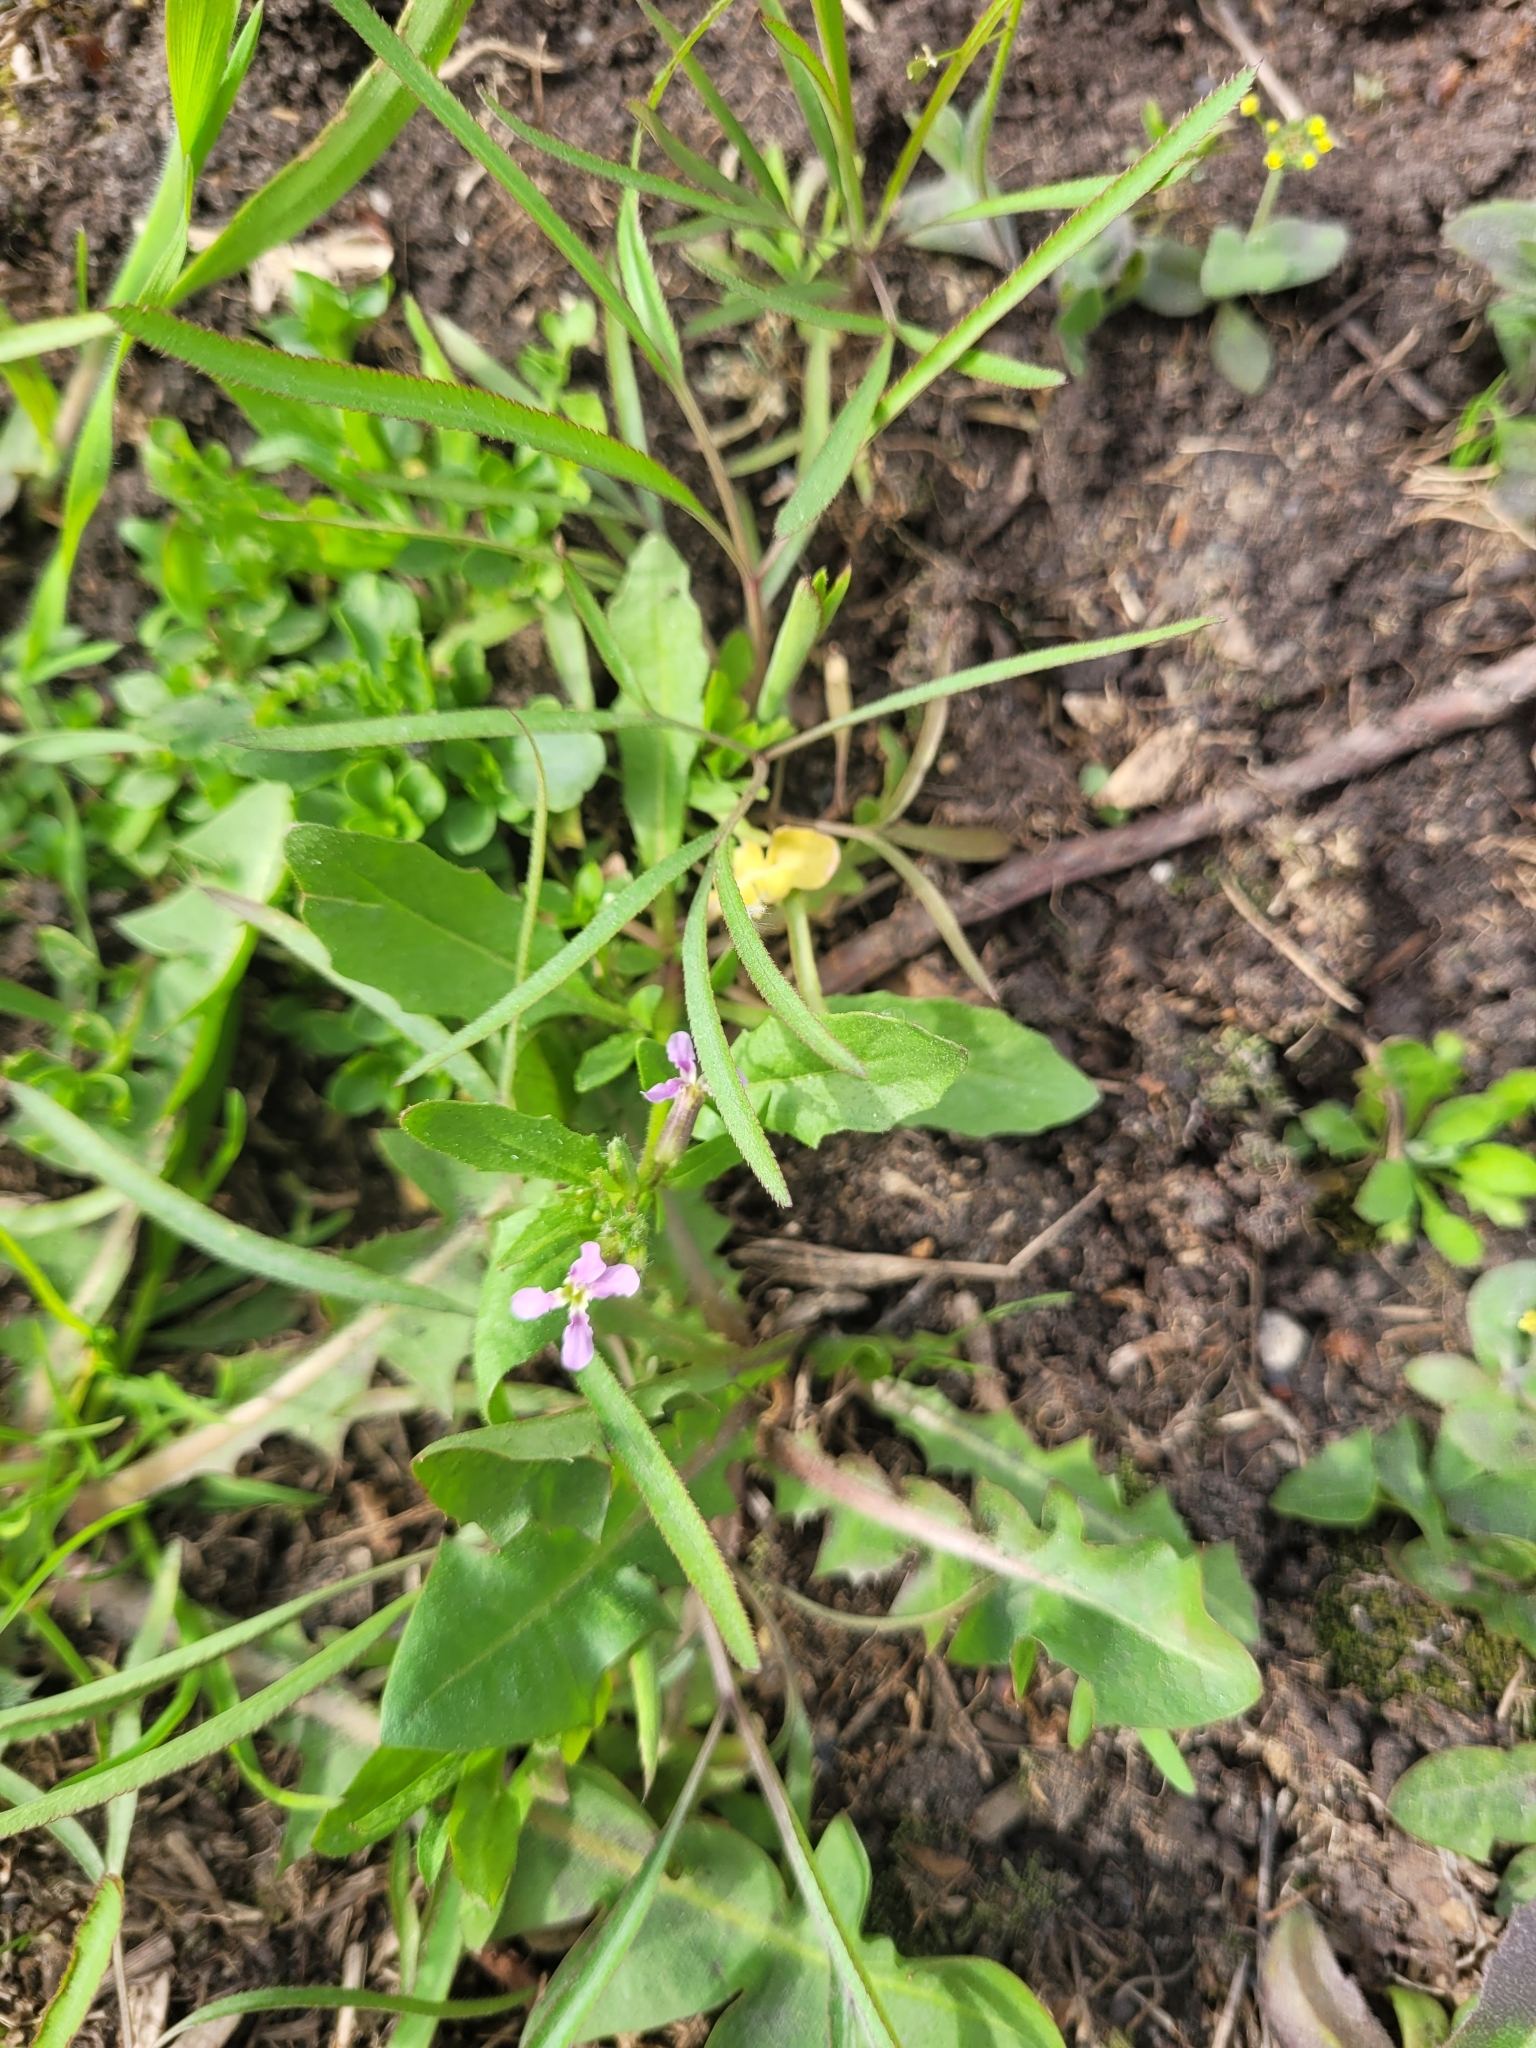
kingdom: Plantae
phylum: Tracheophyta
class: Magnoliopsida
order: Brassicales
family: Brassicaceae
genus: Chorispora
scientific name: Chorispora tenella
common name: Crossflower
